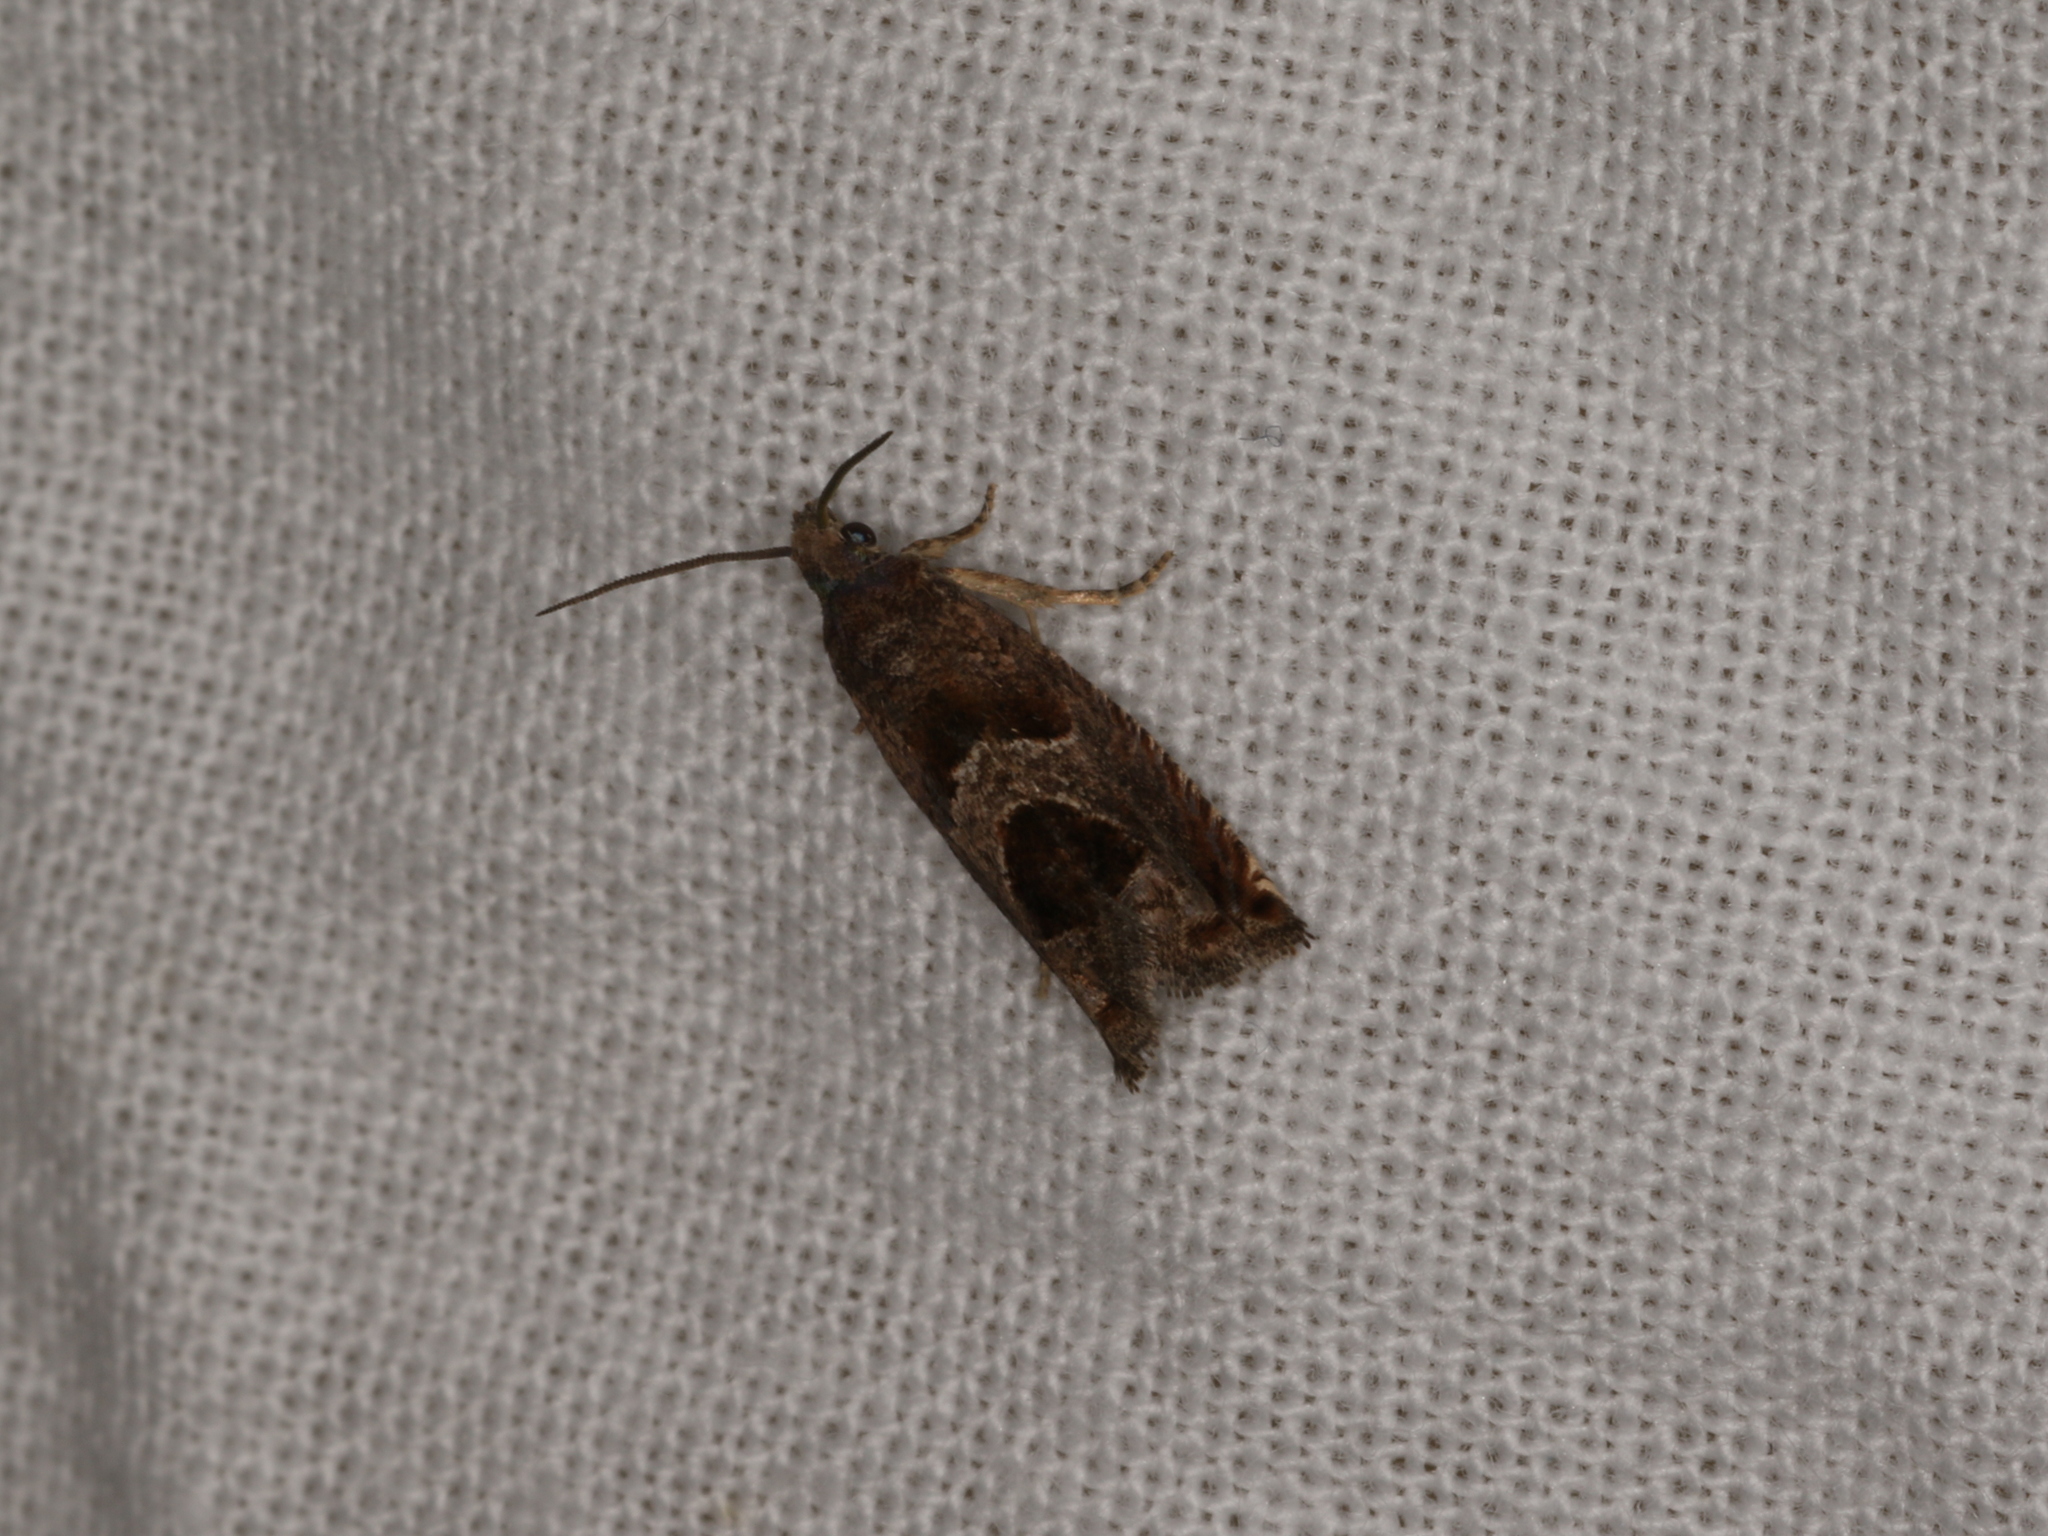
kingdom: Animalia
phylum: Arthropoda
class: Insecta
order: Lepidoptera
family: Tortricidae
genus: Sonia
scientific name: Sonia canadana
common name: Canadian sonia moth
